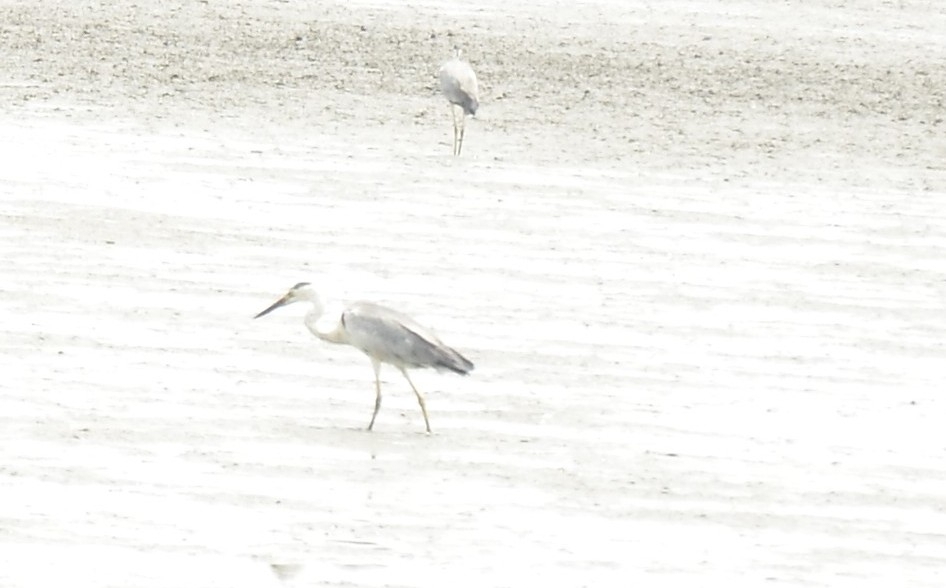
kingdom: Animalia
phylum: Chordata
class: Aves
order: Pelecaniformes
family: Ardeidae
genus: Ardea
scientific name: Ardea cinerea
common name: Grey heron
